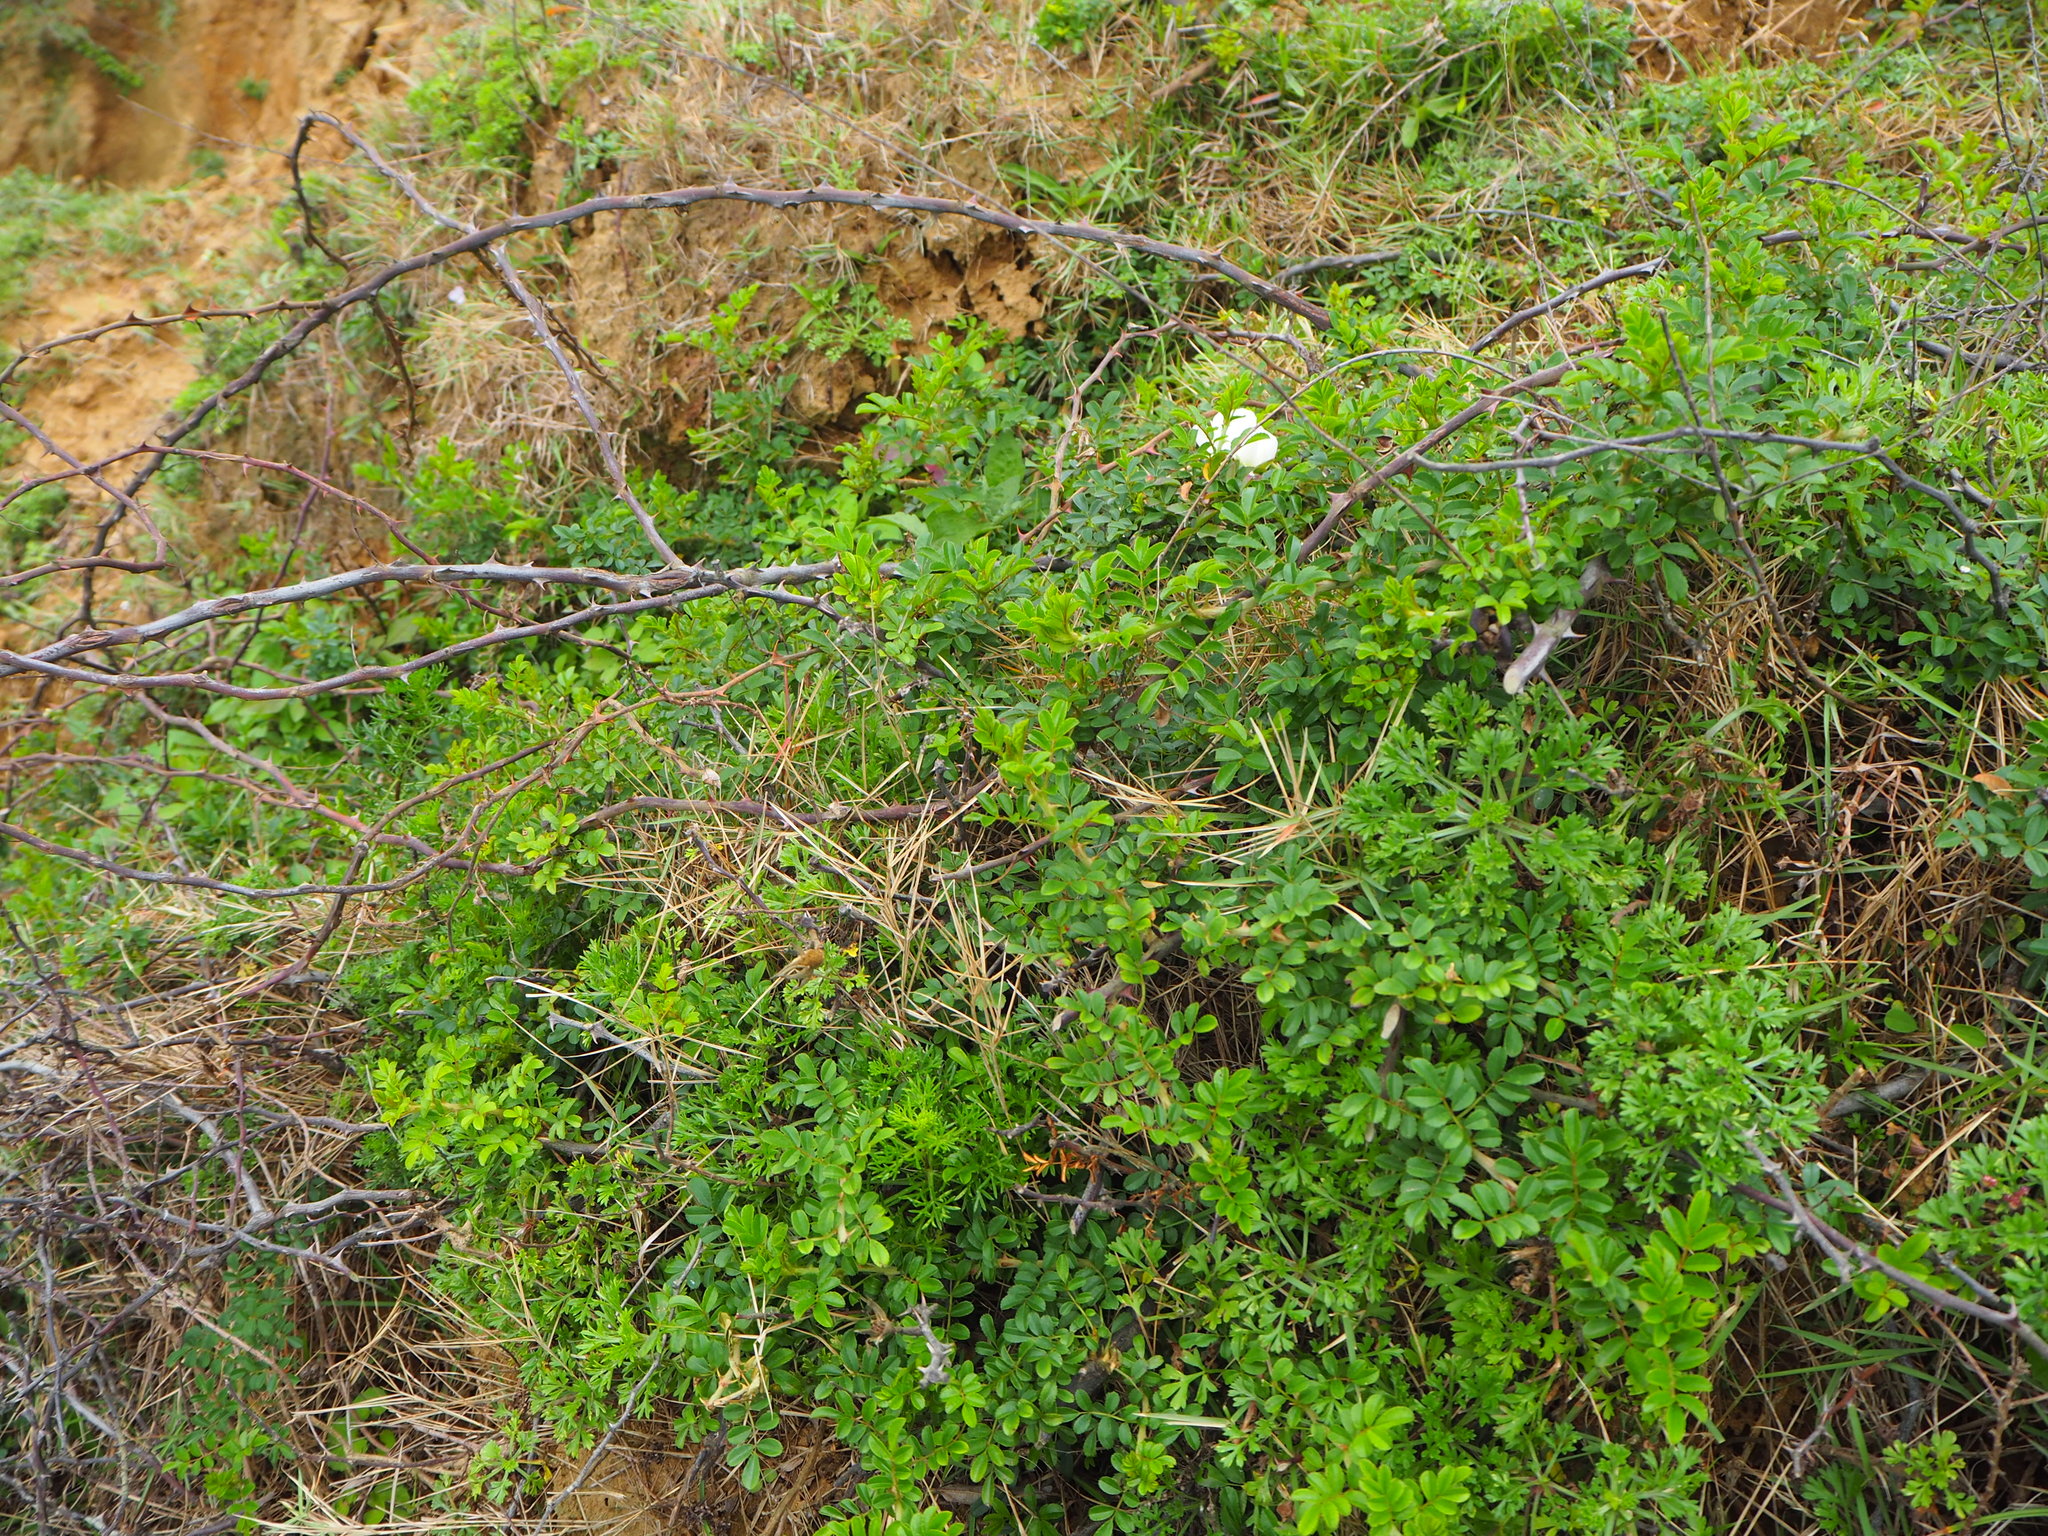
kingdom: Plantae
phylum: Tracheophyta
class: Magnoliopsida
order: Rosales
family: Rosaceae
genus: Rosa
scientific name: Rosa bracteata
